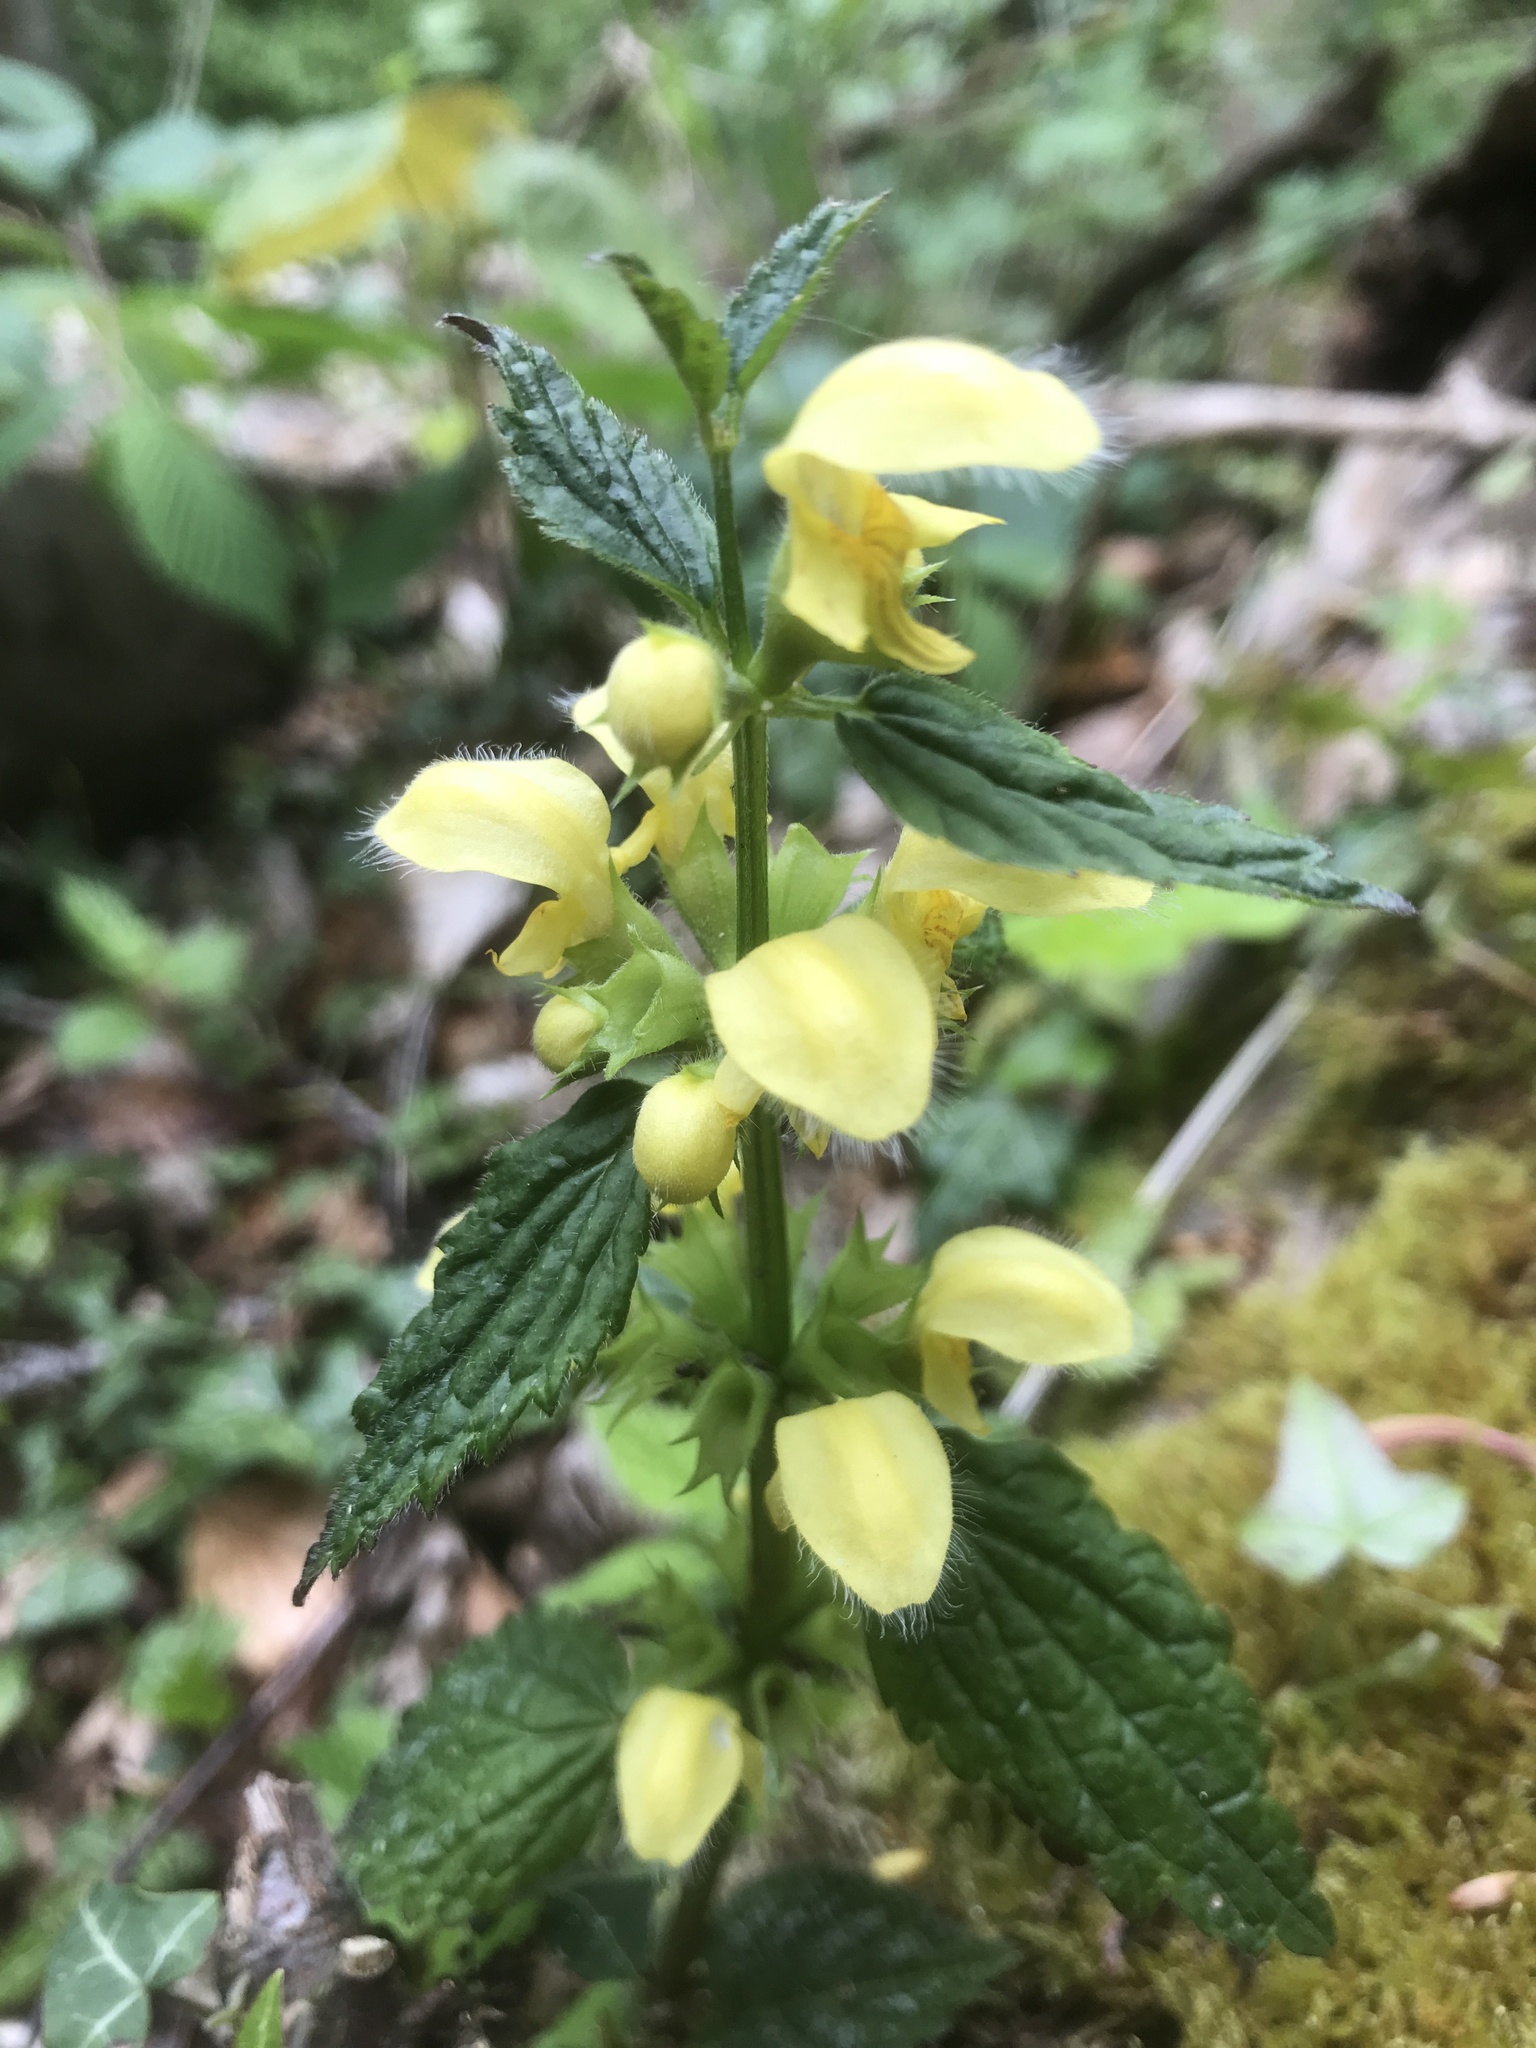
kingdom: Plantae
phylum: Tracheophyta
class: Magnoliopsida
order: Lamiales
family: Lamiaceae
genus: Lamium
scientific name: Lamium galeobdolon
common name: Yellow archangel
